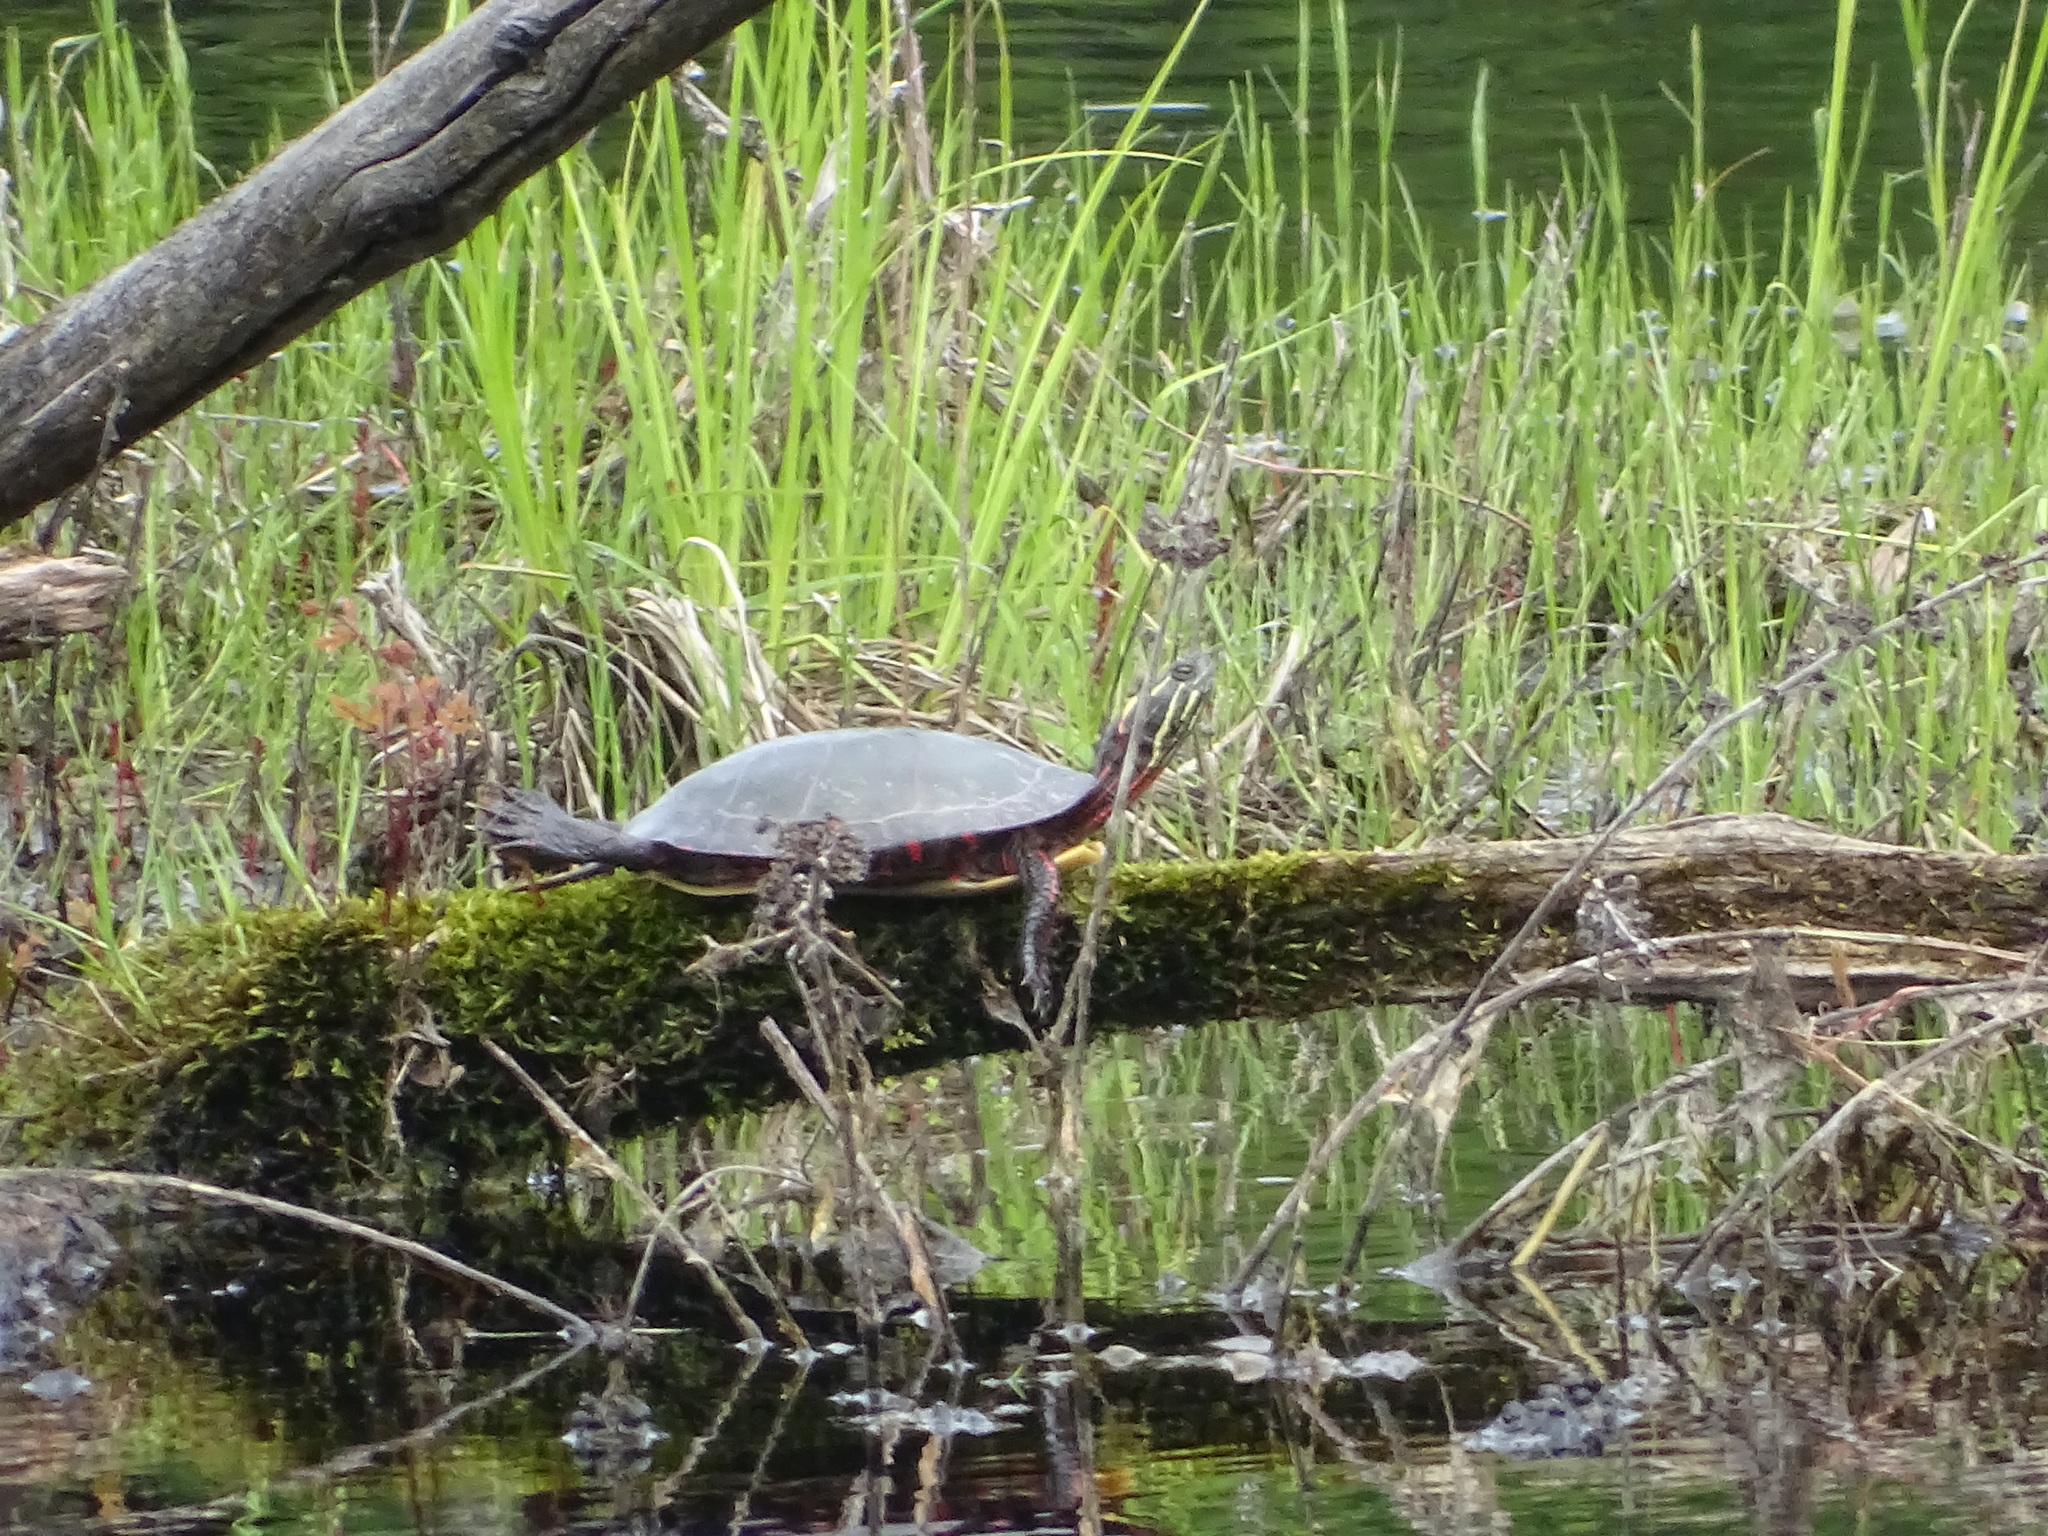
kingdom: Animalia
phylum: Chordata
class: Testudines
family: Emydidae
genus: Chrysemys
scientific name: Chrysemys picta
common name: Painted turtle
